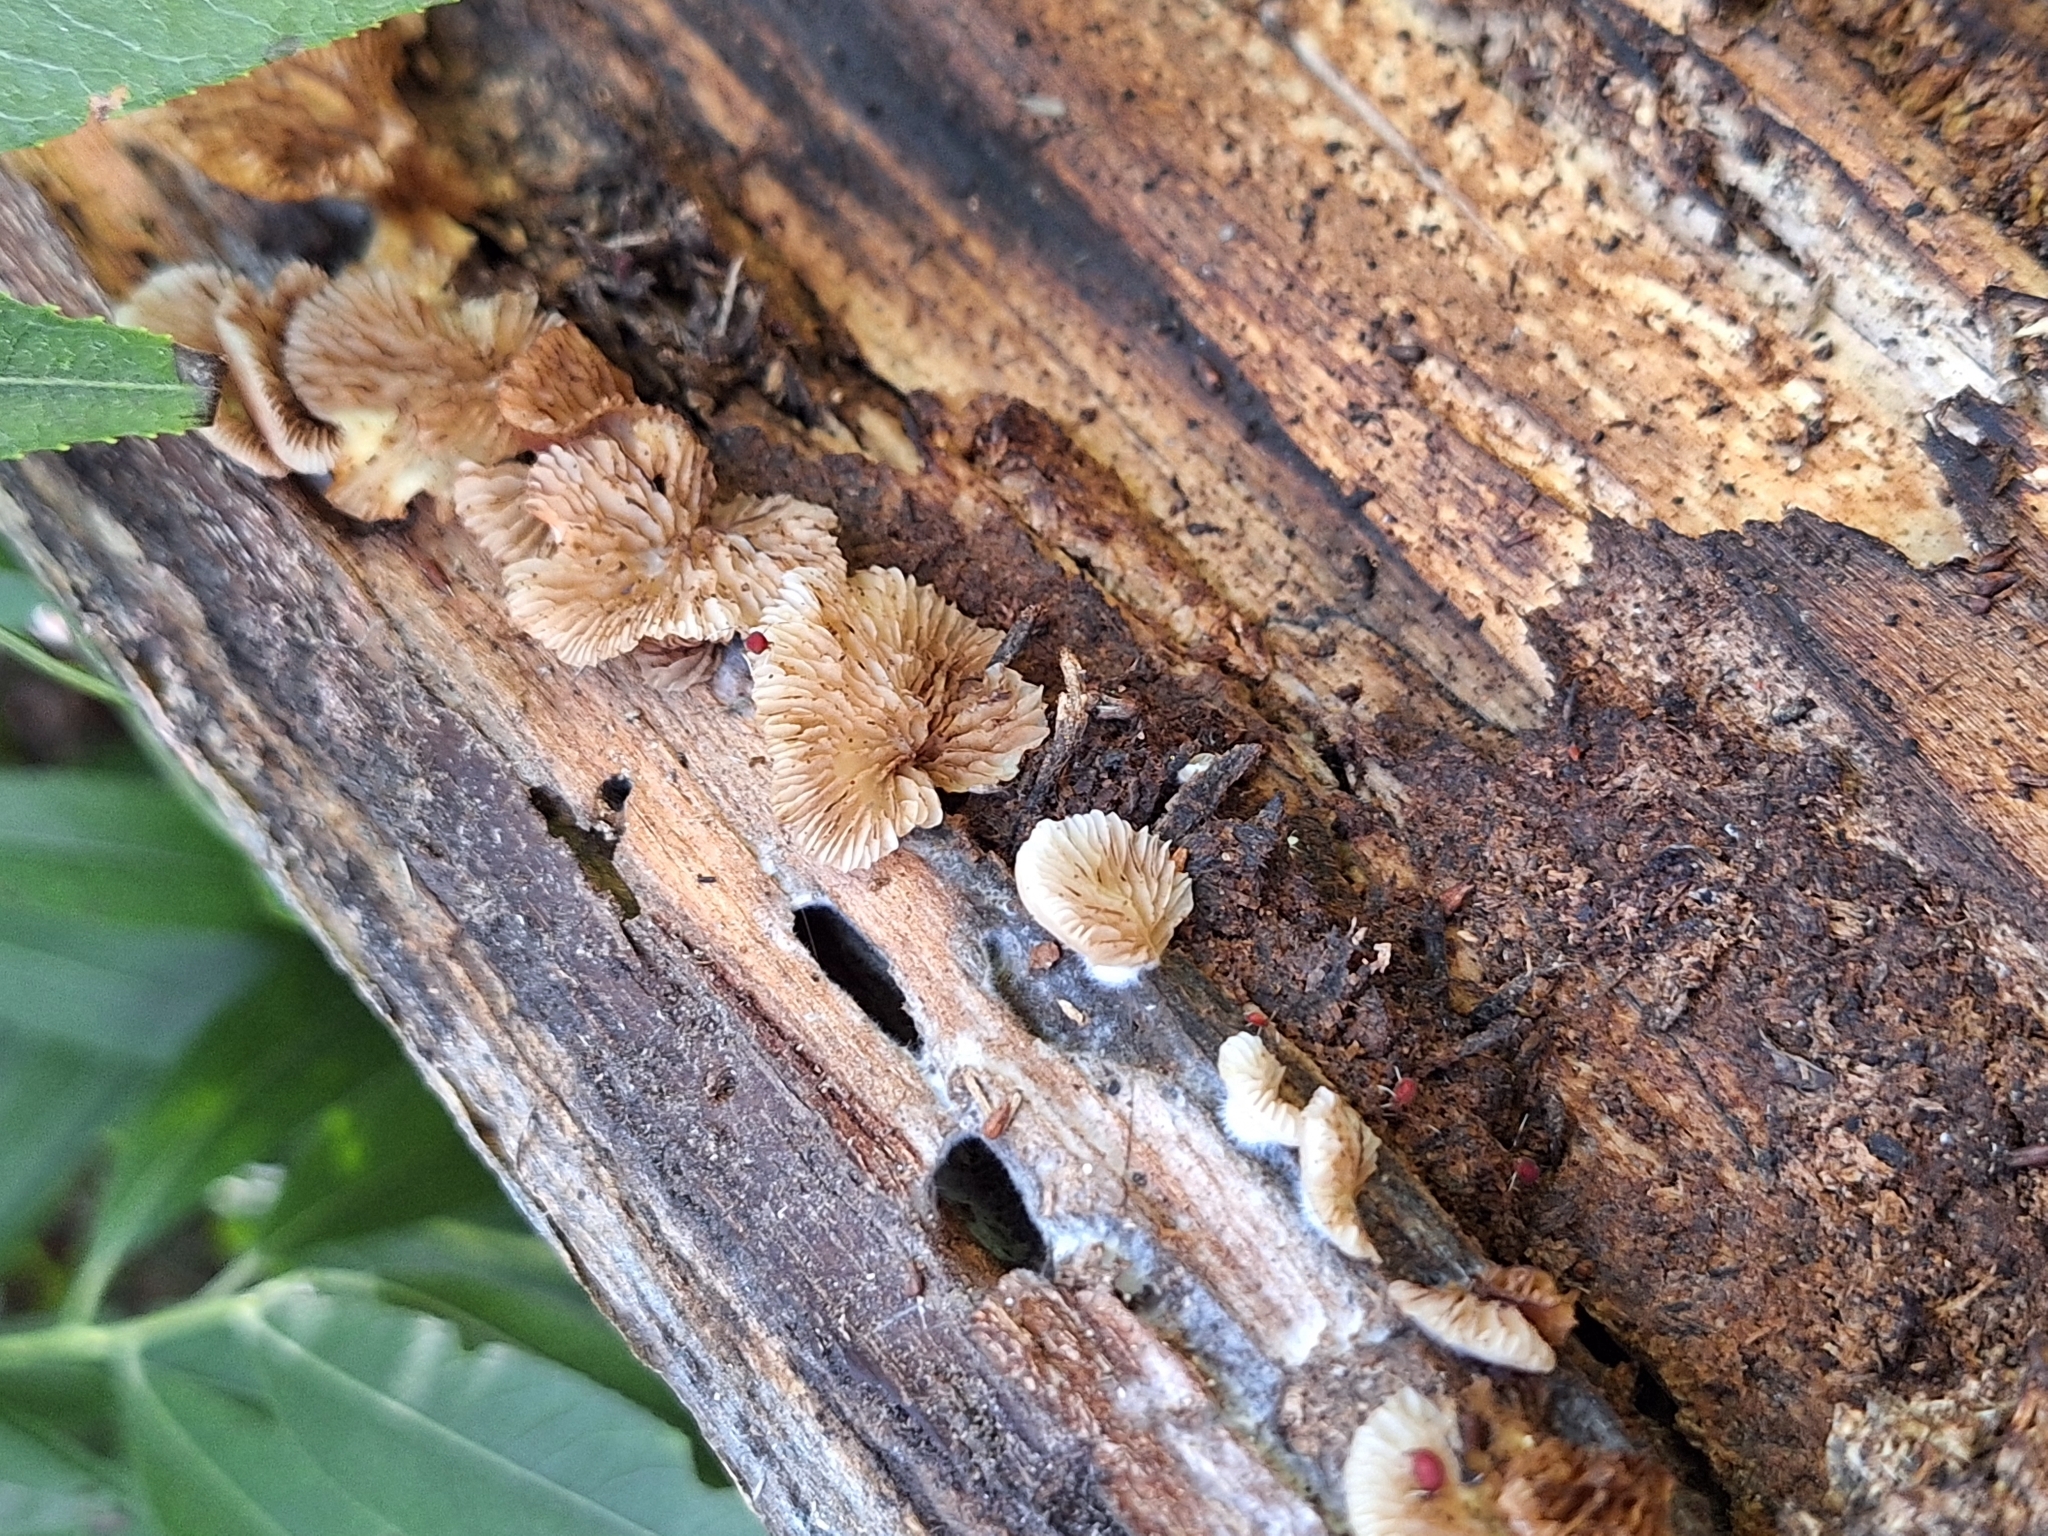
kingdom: Fungi
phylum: Basidiomycota
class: Agaricomycetes
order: Agaricales
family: Crepidotaceae
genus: Crepidotus
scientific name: Crepidotus variabilis
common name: Variable oysterling
